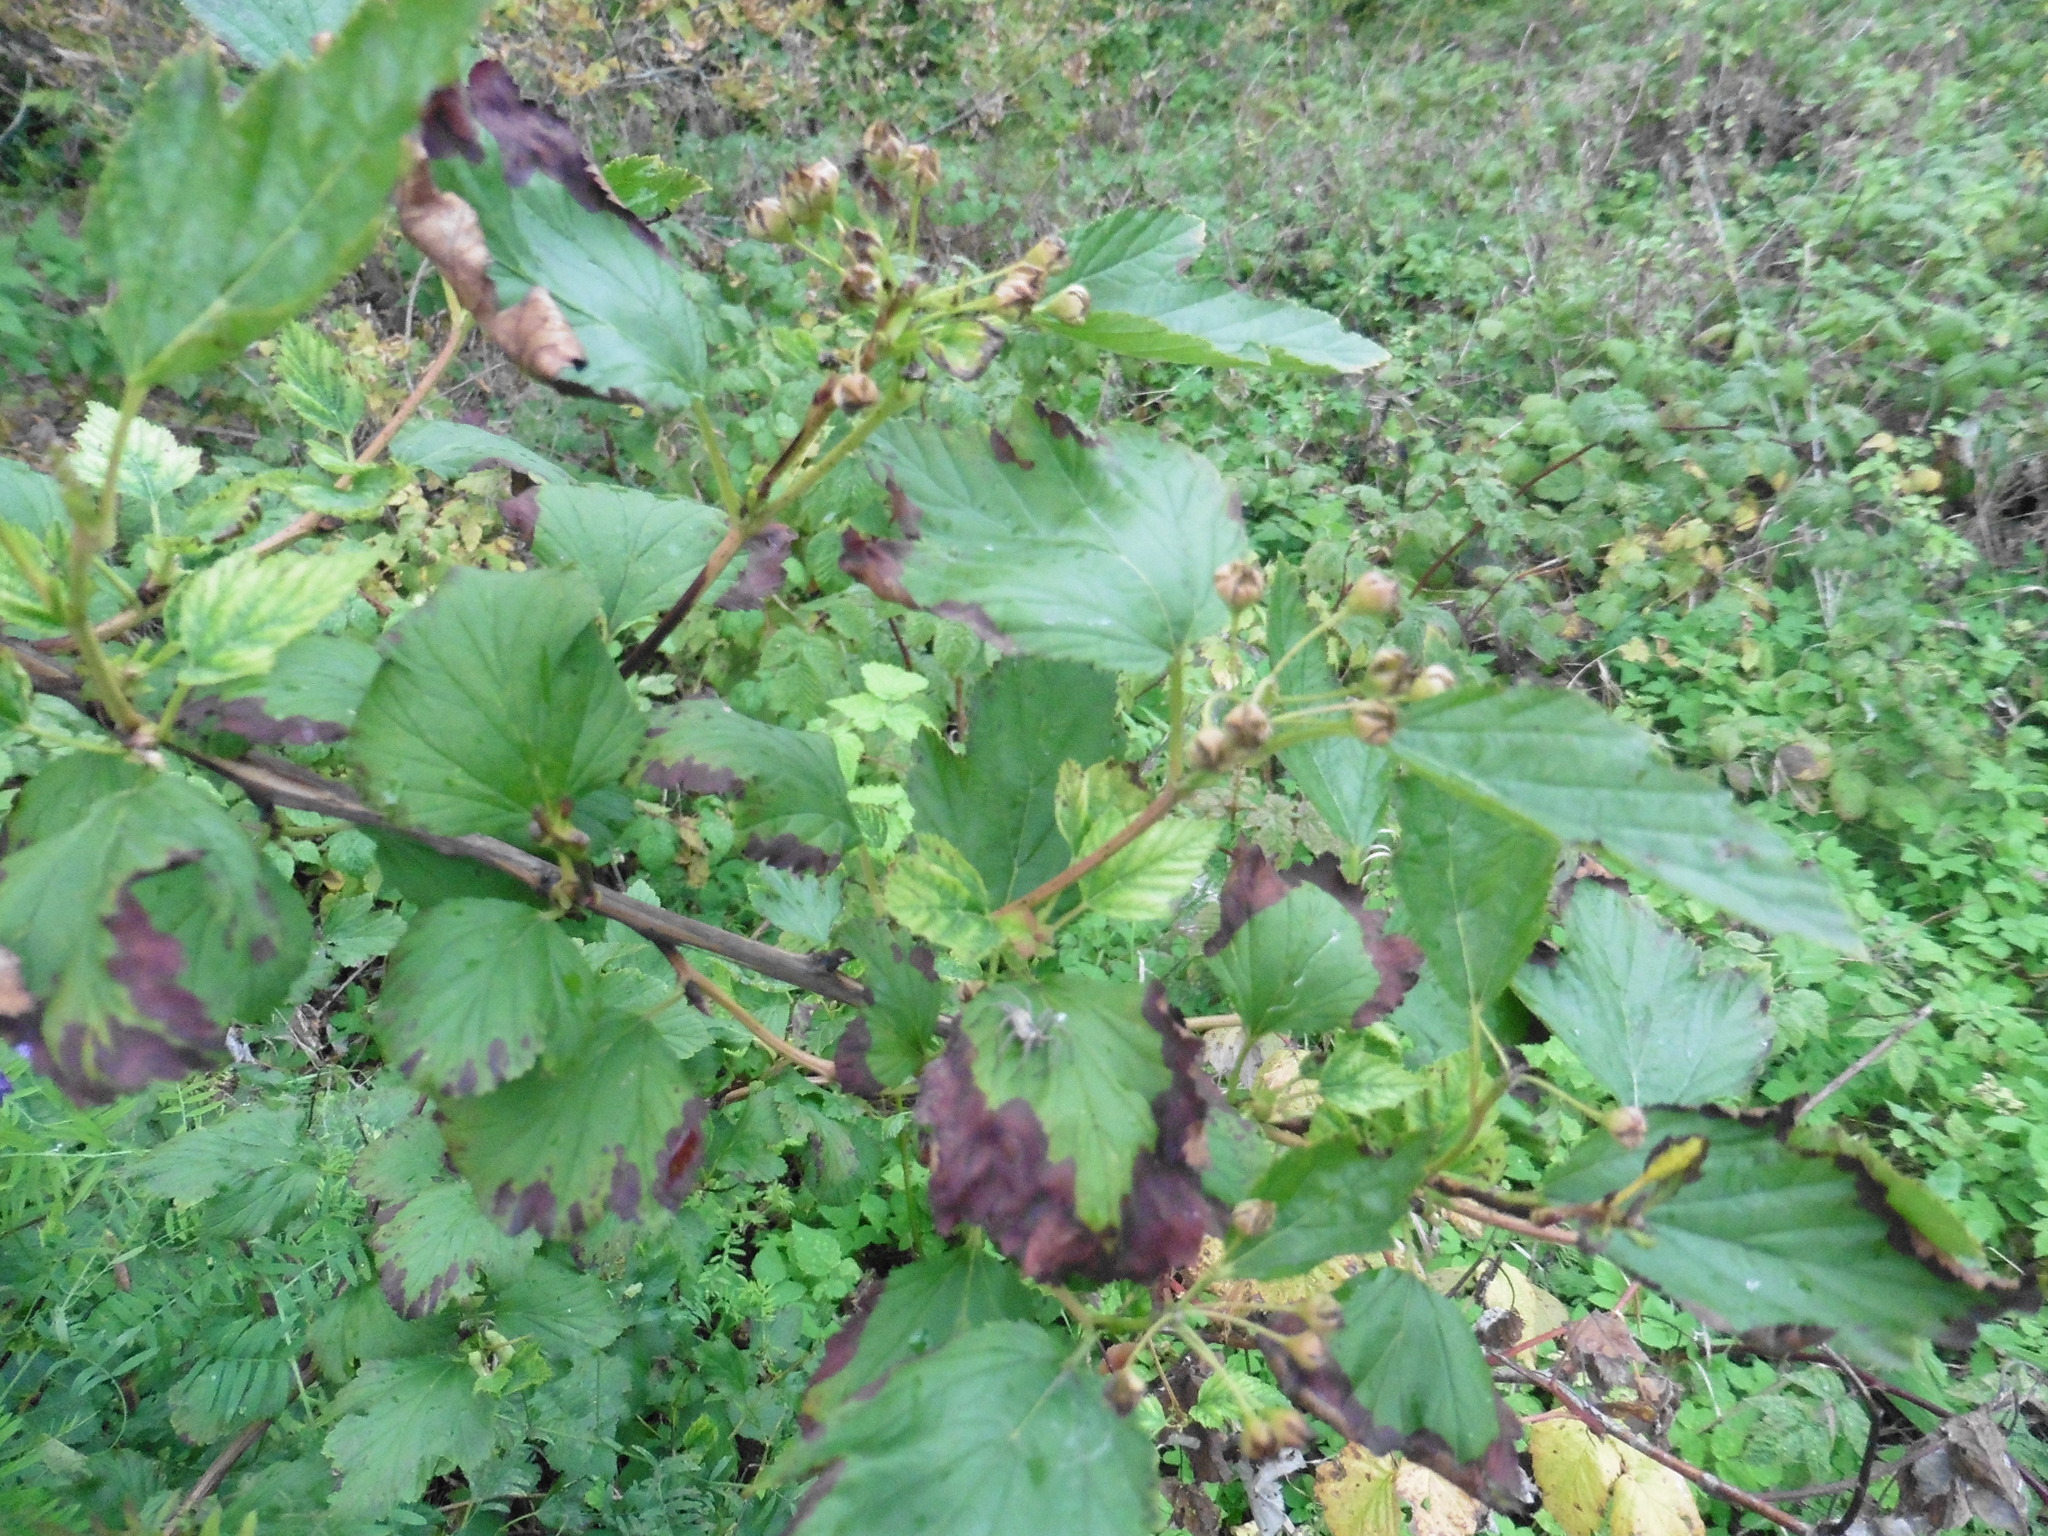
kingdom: Plantae
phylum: Tracheophyta
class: Magnoliopsida
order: Rosales
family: Rosaceae
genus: Physocarpus
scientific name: Physocarpus opulifolius
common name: Ninebark
